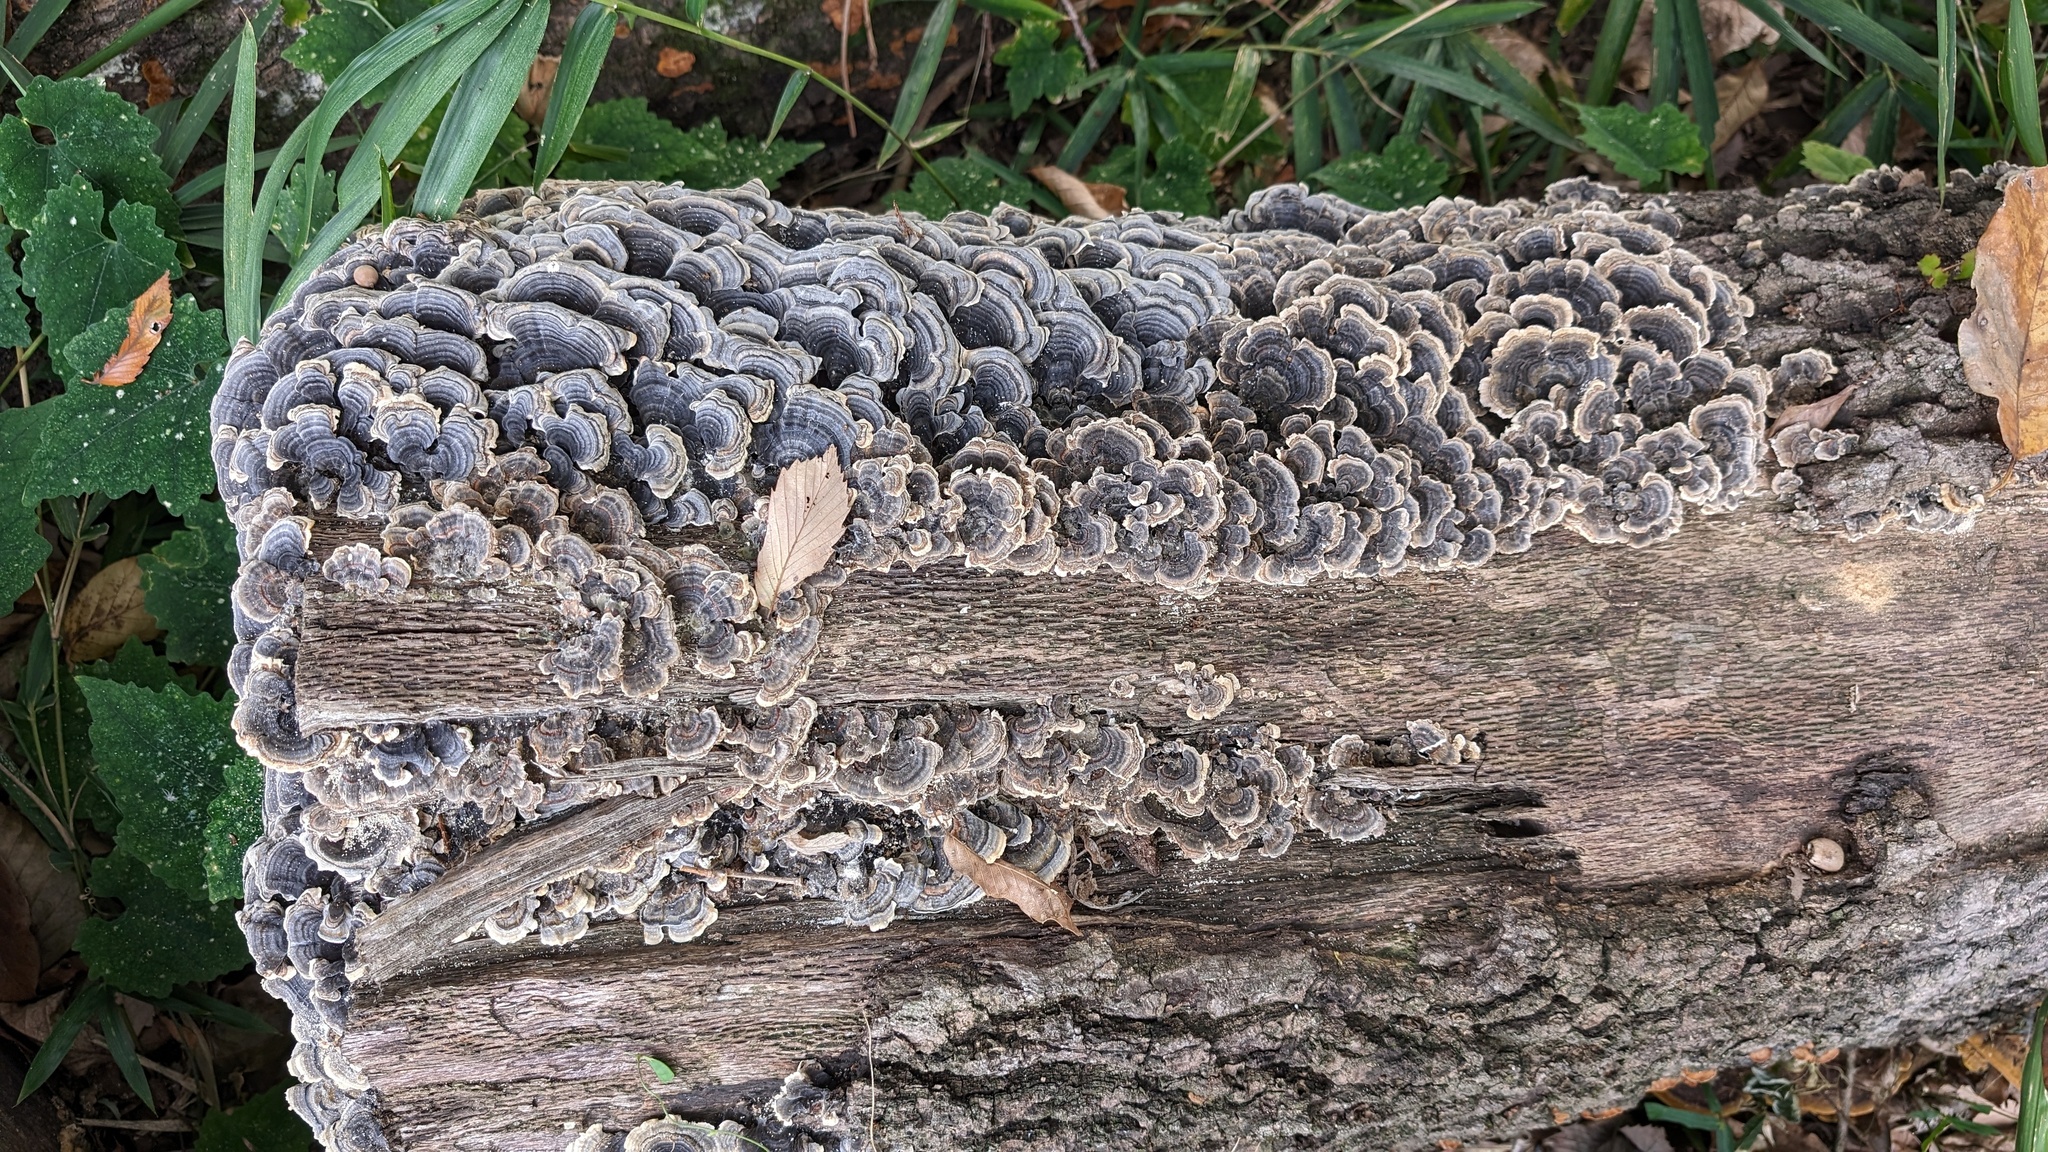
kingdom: Fungi
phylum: Basidiomycota
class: Agaricomycetes
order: Polyporales
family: Polyporaceae
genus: Trametes
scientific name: Trametes versicolor
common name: Turkeytail
